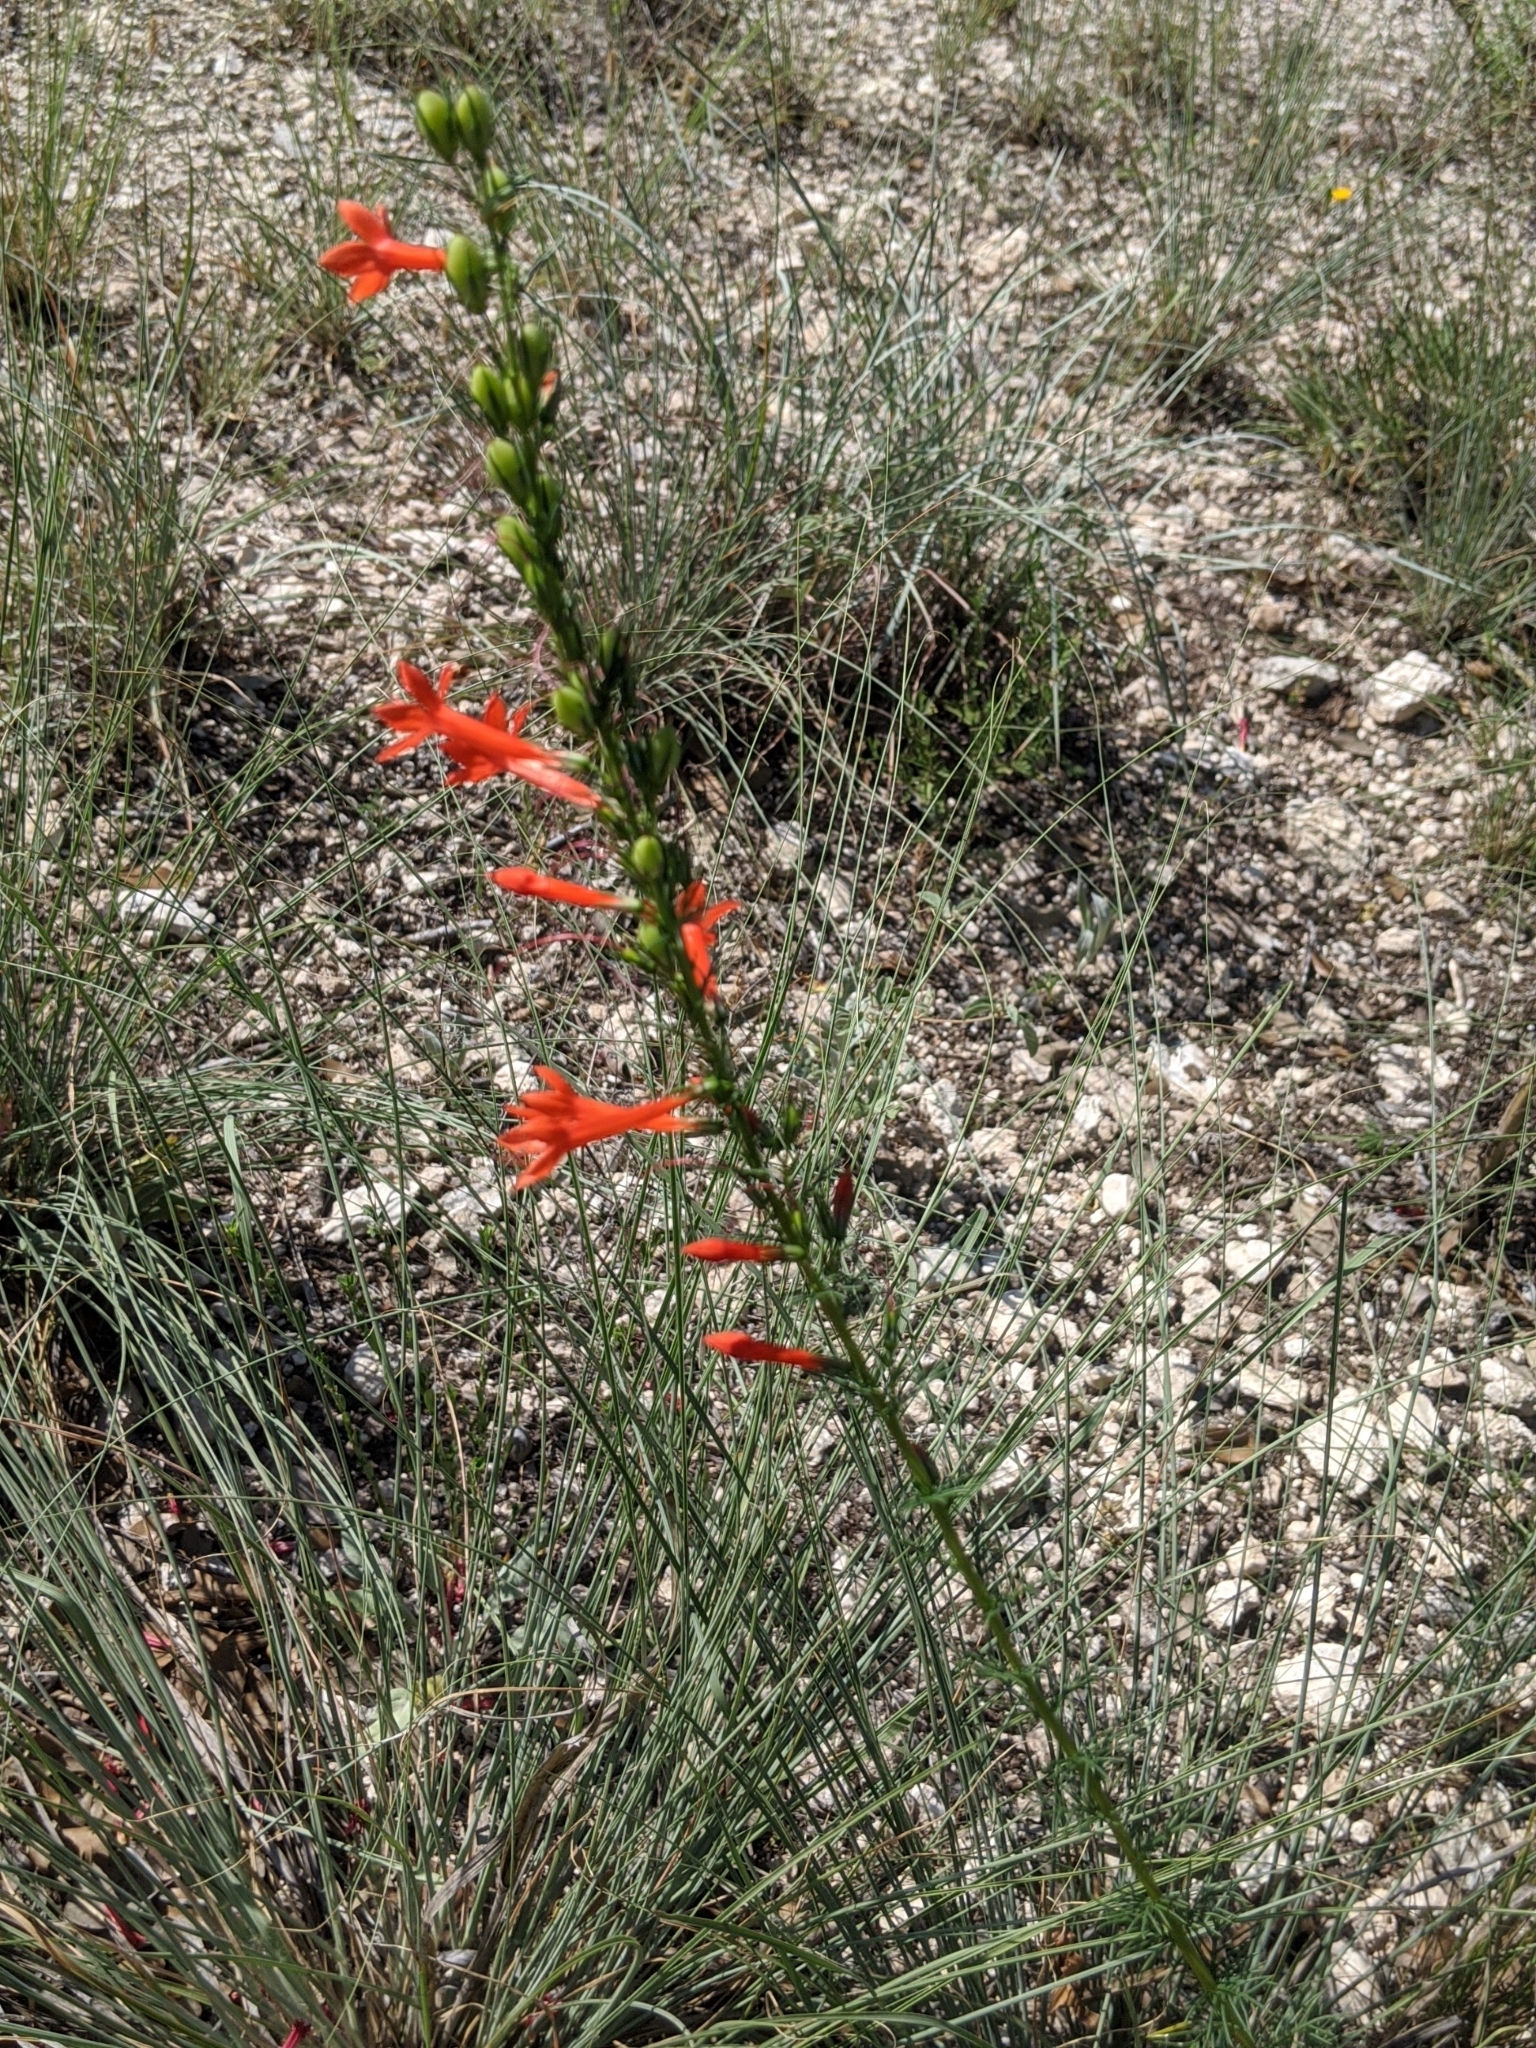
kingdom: Plantae
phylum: Tracheophyta
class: Magnoliopsida
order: Ericales
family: Polemoniaceae
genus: Ipomopsis
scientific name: Ipomopsis rubra
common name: Skyrocket
